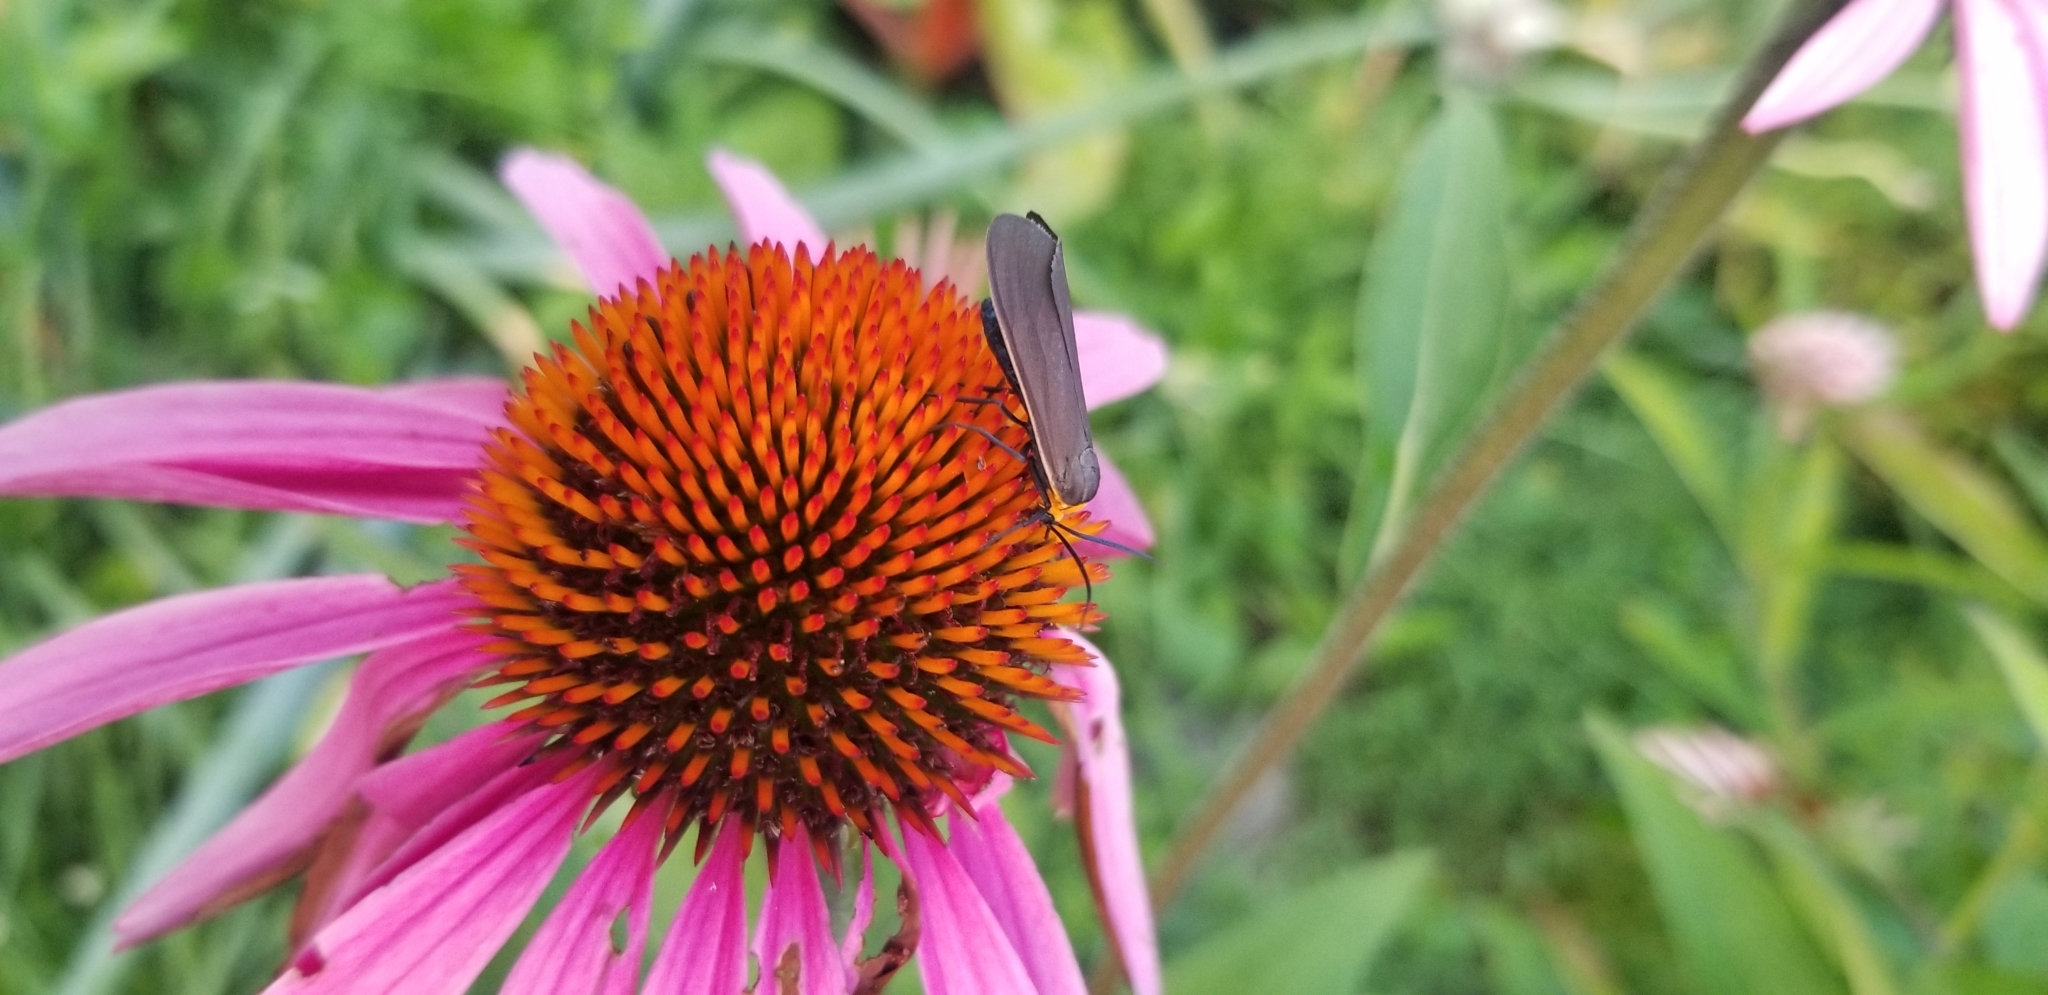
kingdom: Animalia
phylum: Arthropoda
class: Insecta
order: Lepidoptera
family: Erebidae
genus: Cisseps
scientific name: Cisseps fulvicollis
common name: Yellow-collared scape moth
